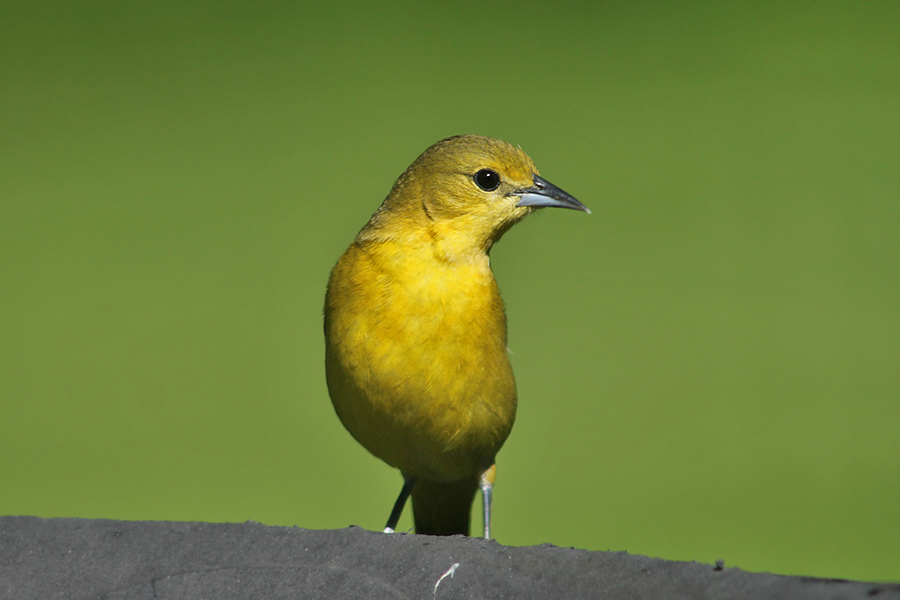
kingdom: Animalia
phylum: Chordata
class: Aves
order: Passeriformes
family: Icteridae
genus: Icterus
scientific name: Icterus spurius
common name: Orchard oriole
